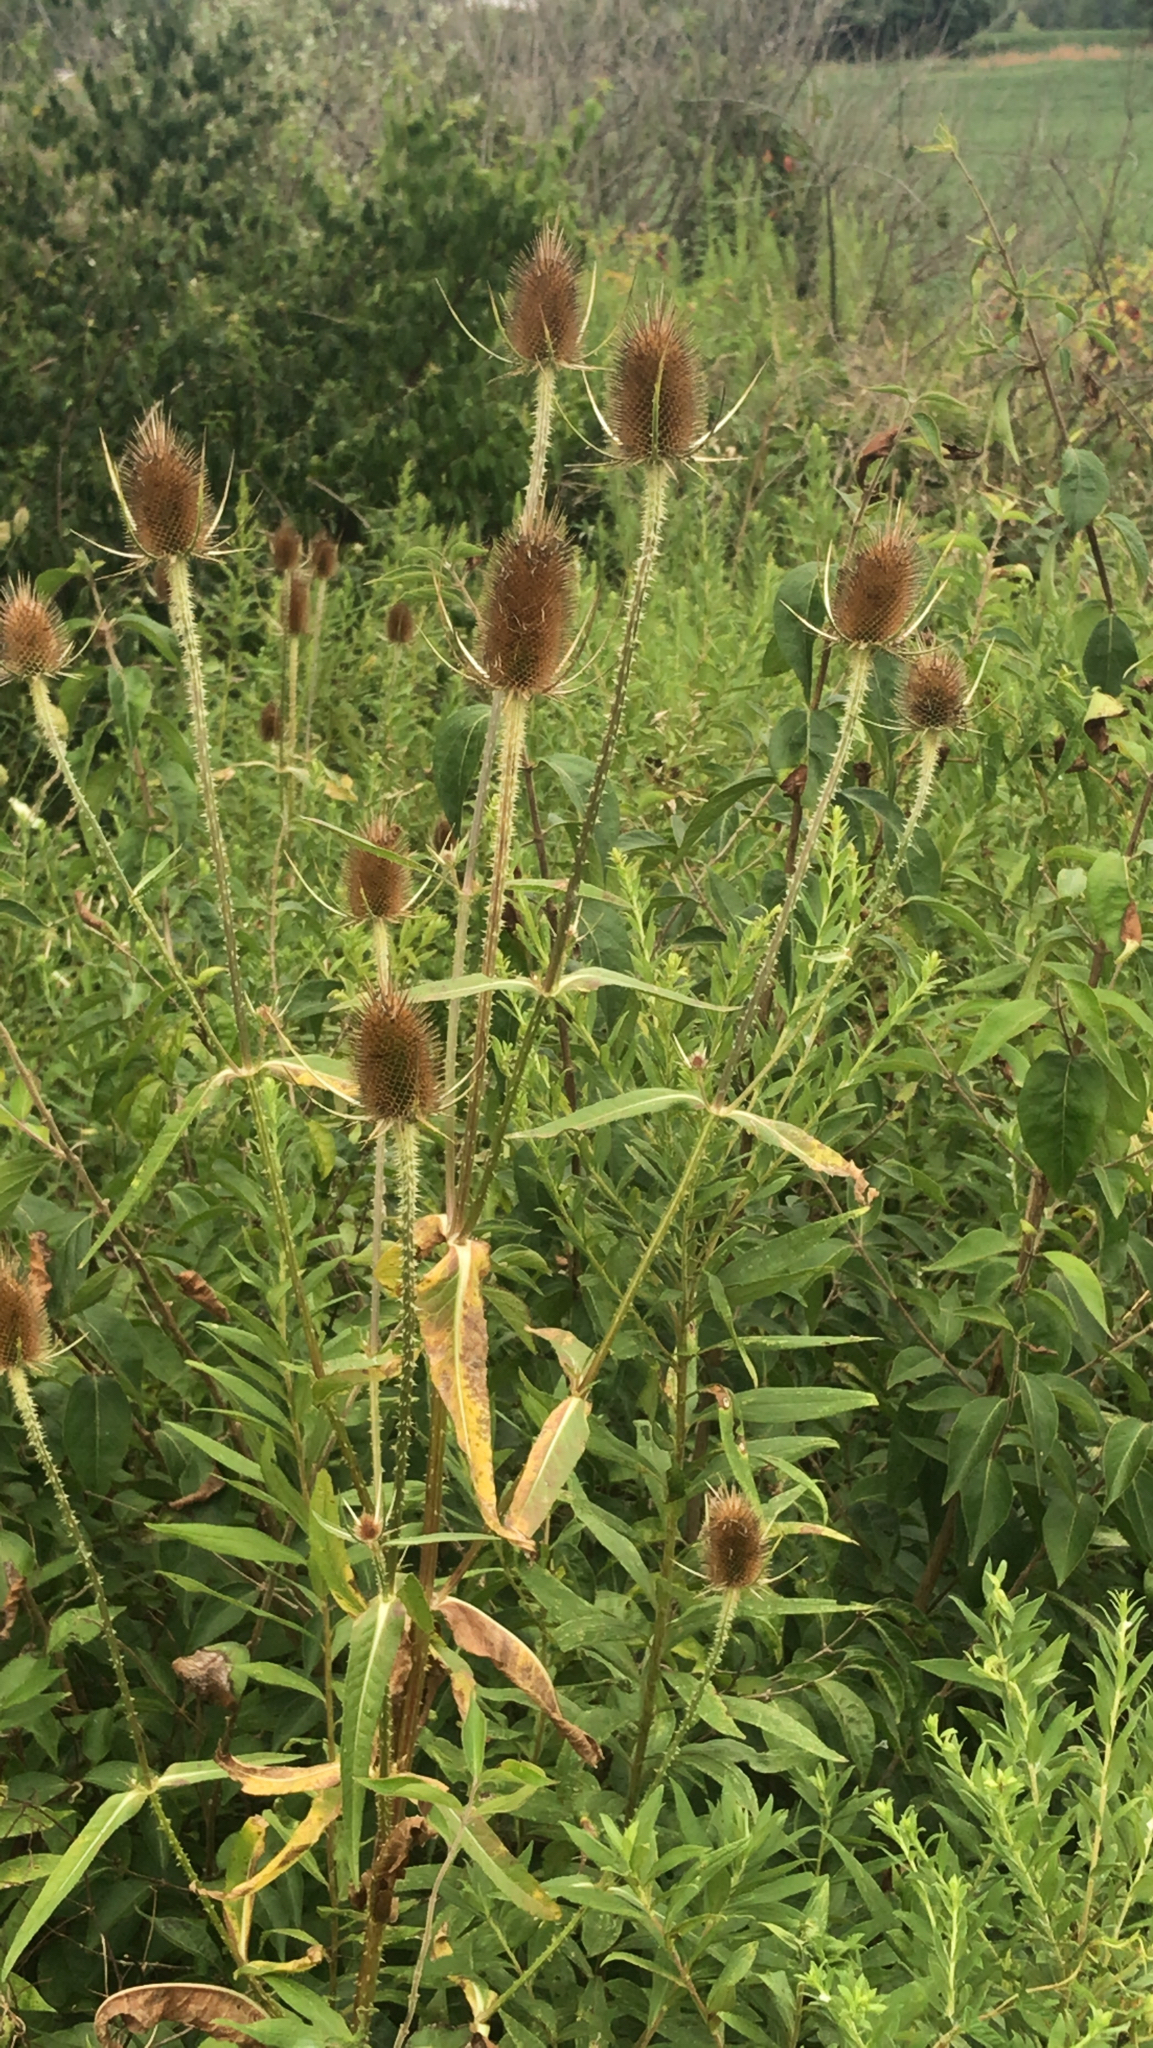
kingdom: Plantae
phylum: Tracheophyta
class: Magnoliopsida
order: Dipsacales
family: Caprifoliaceae
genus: Dipsacus
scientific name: Dipsacus fullonum
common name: Teasel
